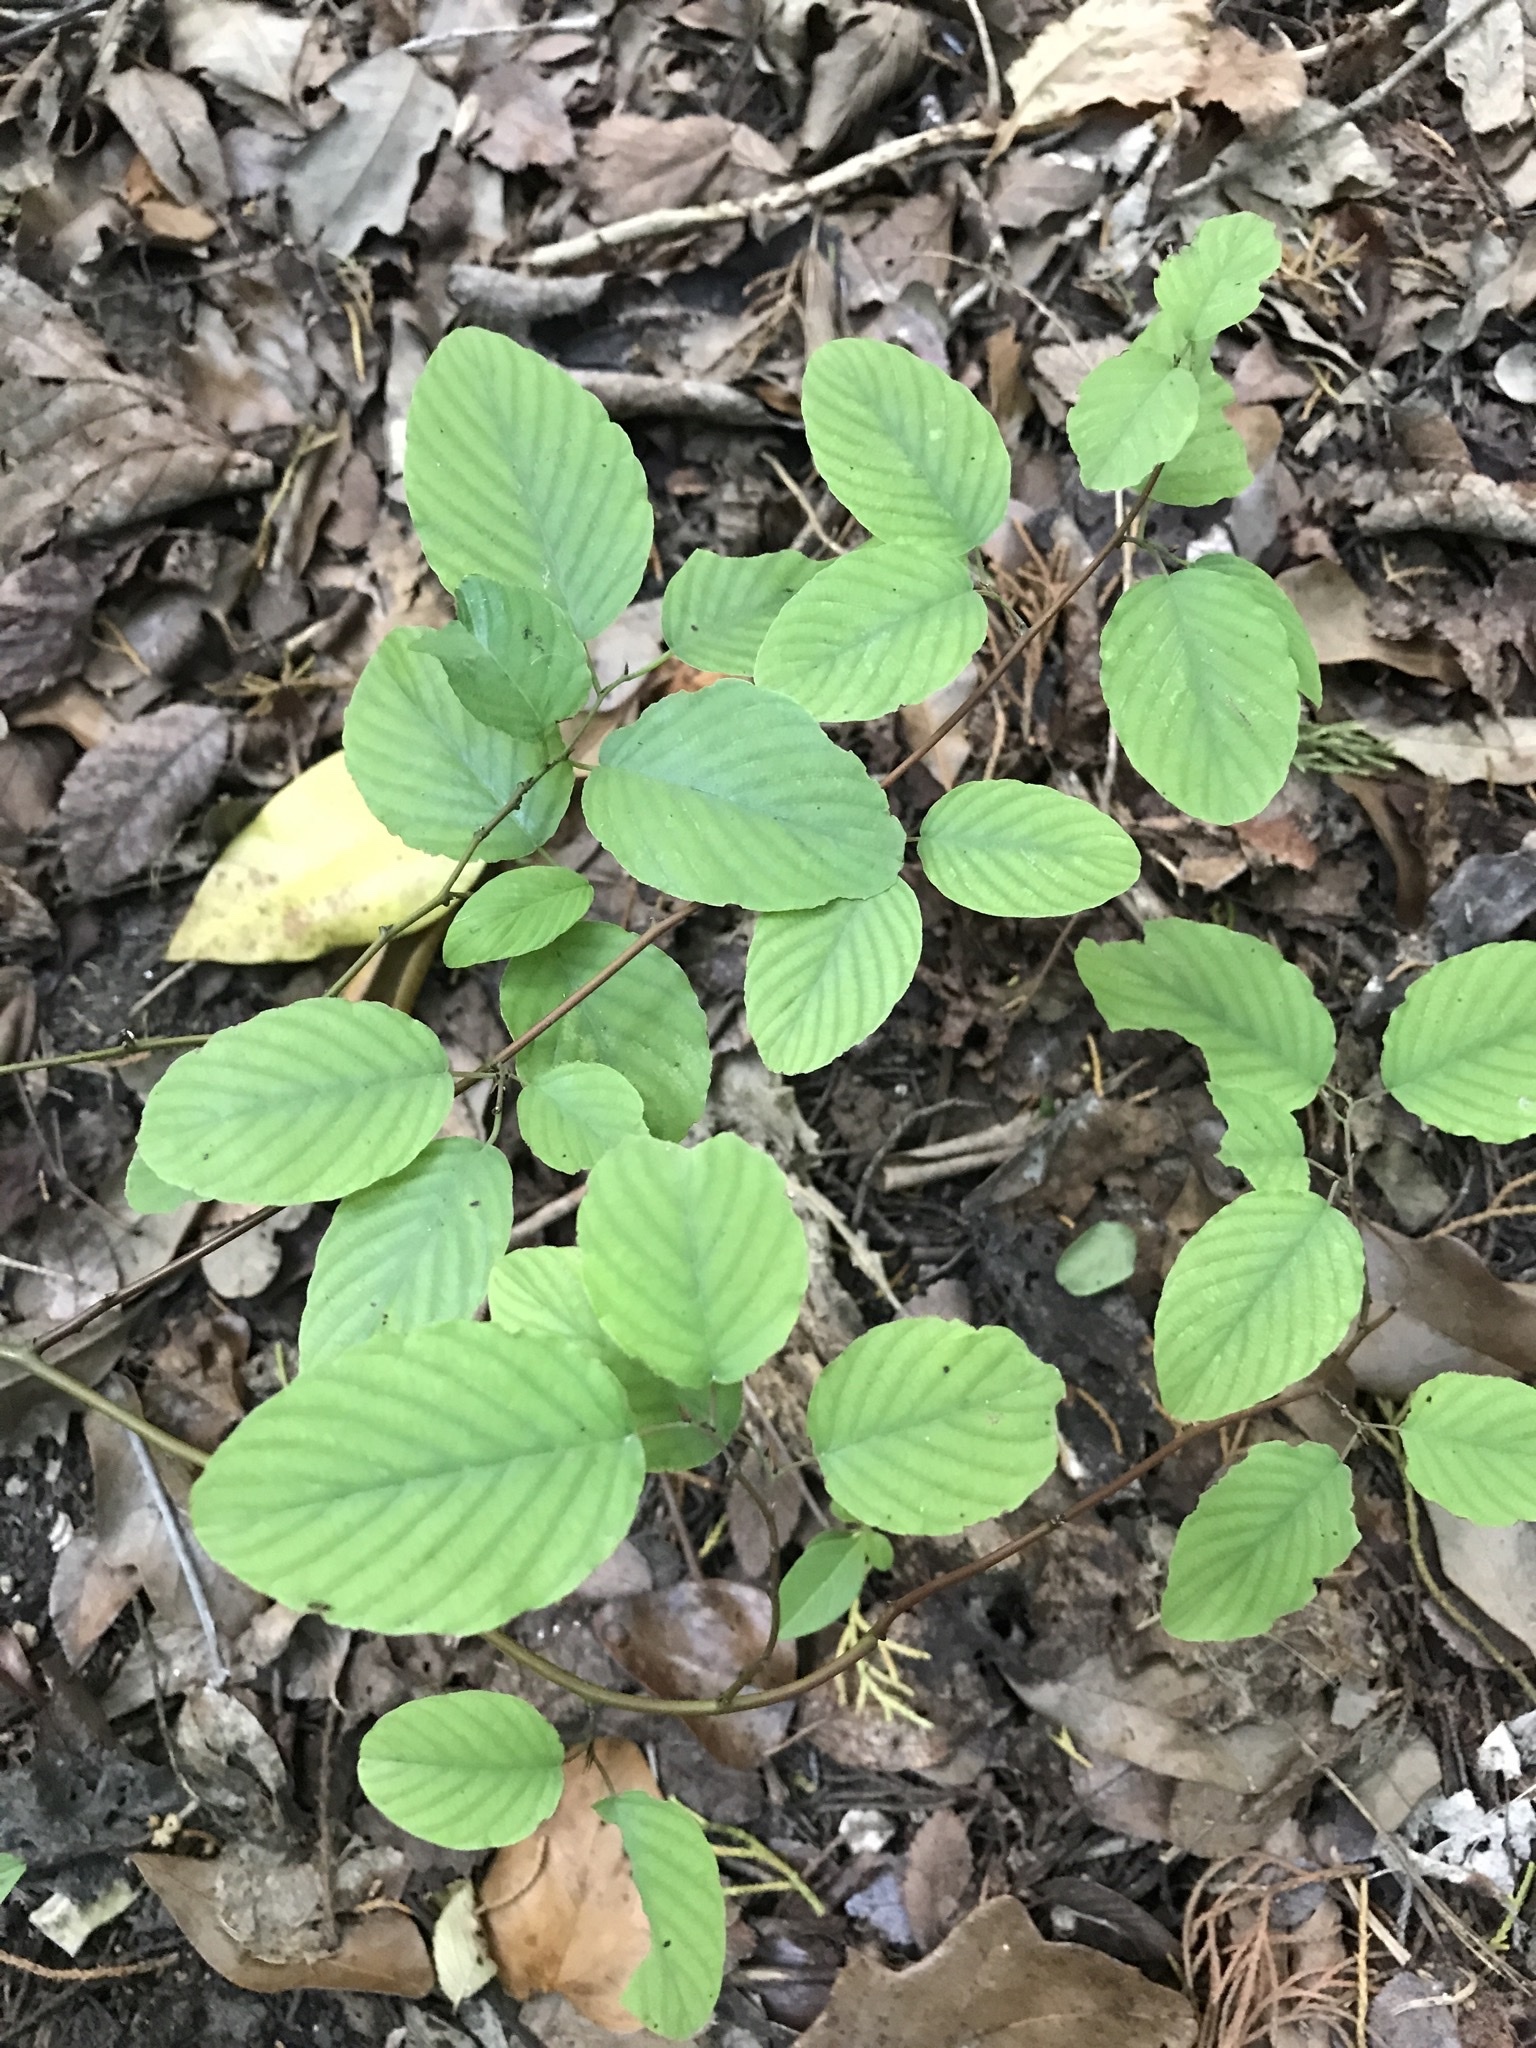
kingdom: Plantae
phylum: Tracheophyta
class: Magnoliopsida
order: Rosales
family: Rhamnaceae
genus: Berchemia
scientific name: Berchemia scandens
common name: Supplejack
